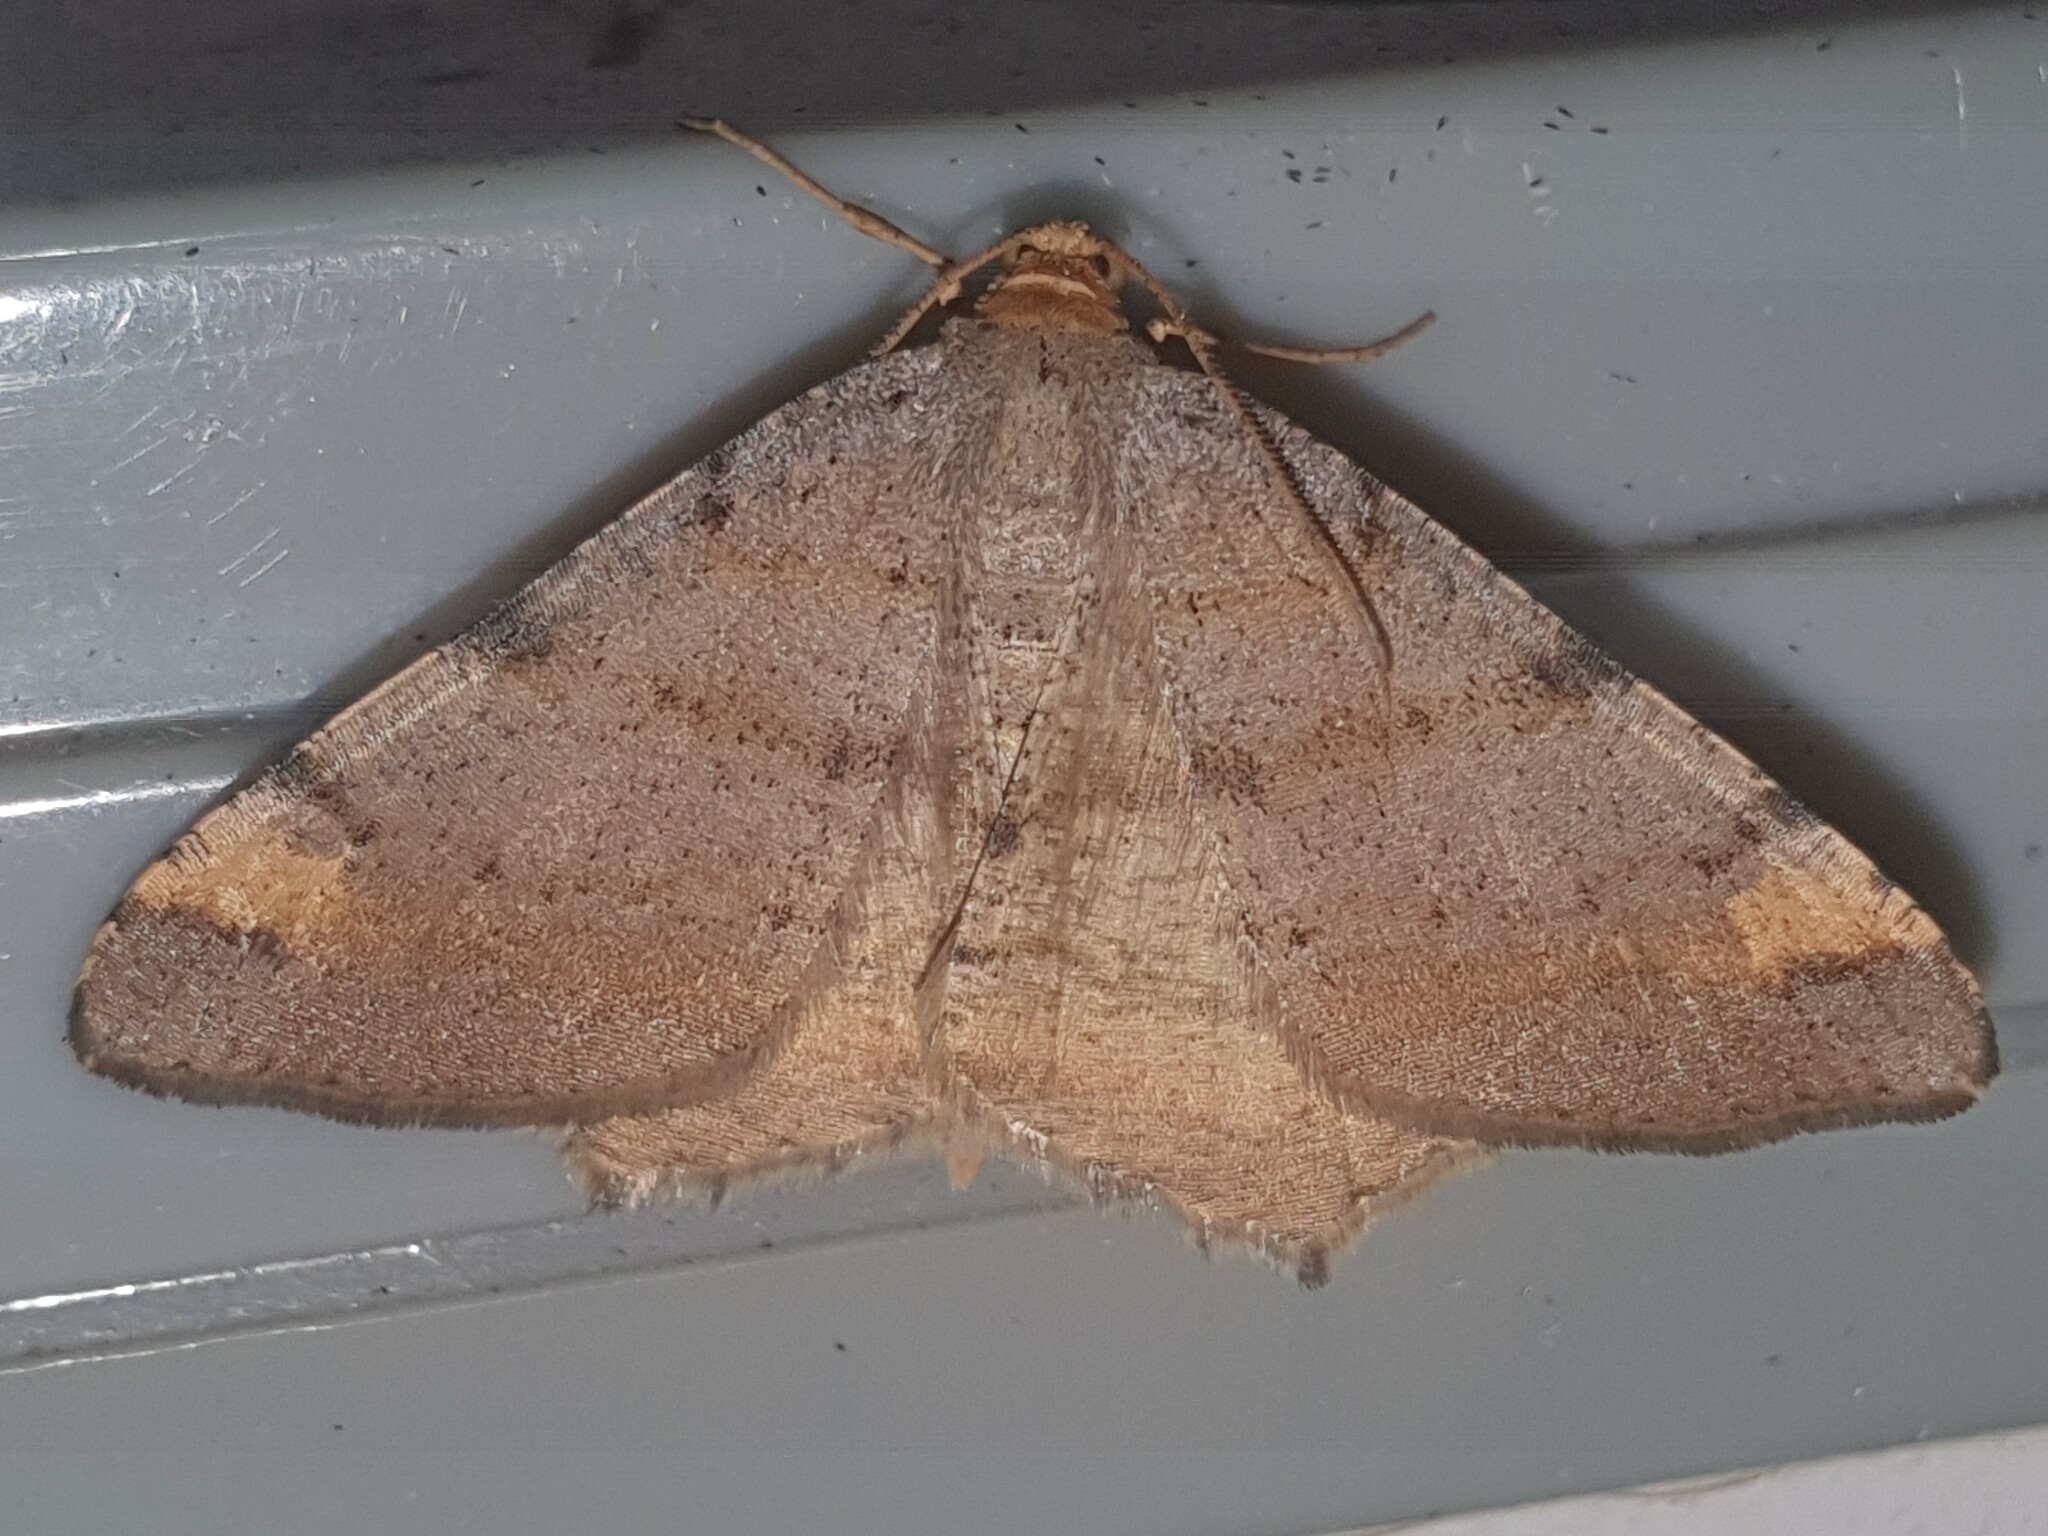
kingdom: Animalia
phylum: Arthropoda
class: Insecta
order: Lepidoptera
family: Geometridae
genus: Macaria
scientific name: Macaria liturata
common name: Tawny-barred angle
